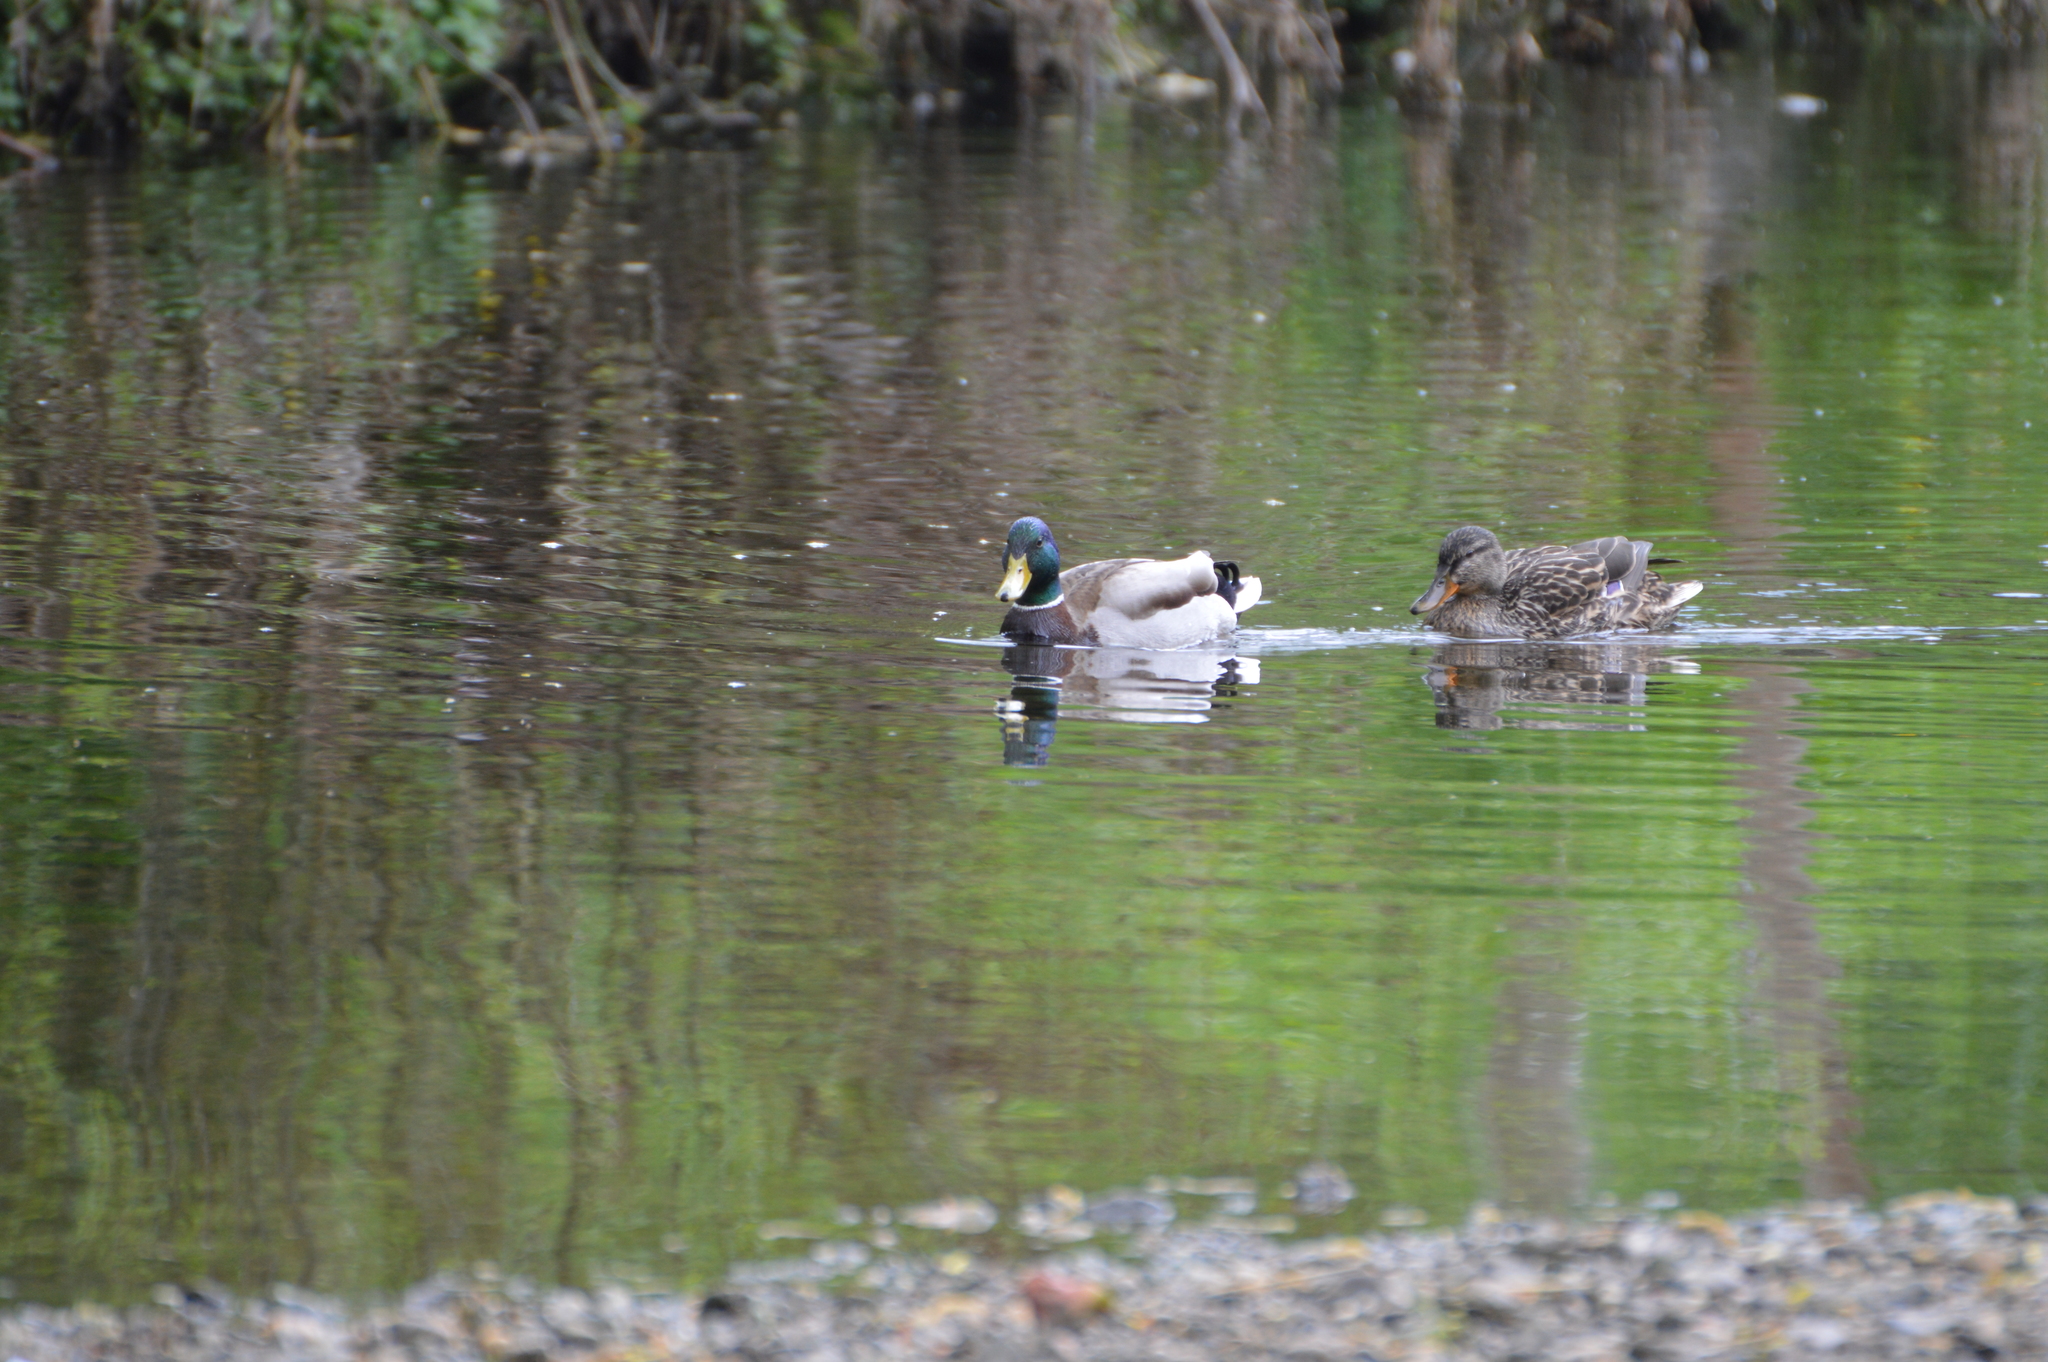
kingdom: Animalia
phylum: Chordata
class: Aves
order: Anseriformes
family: Anatidae
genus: Anas
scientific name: Anas platyrhynchos
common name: Mallard
